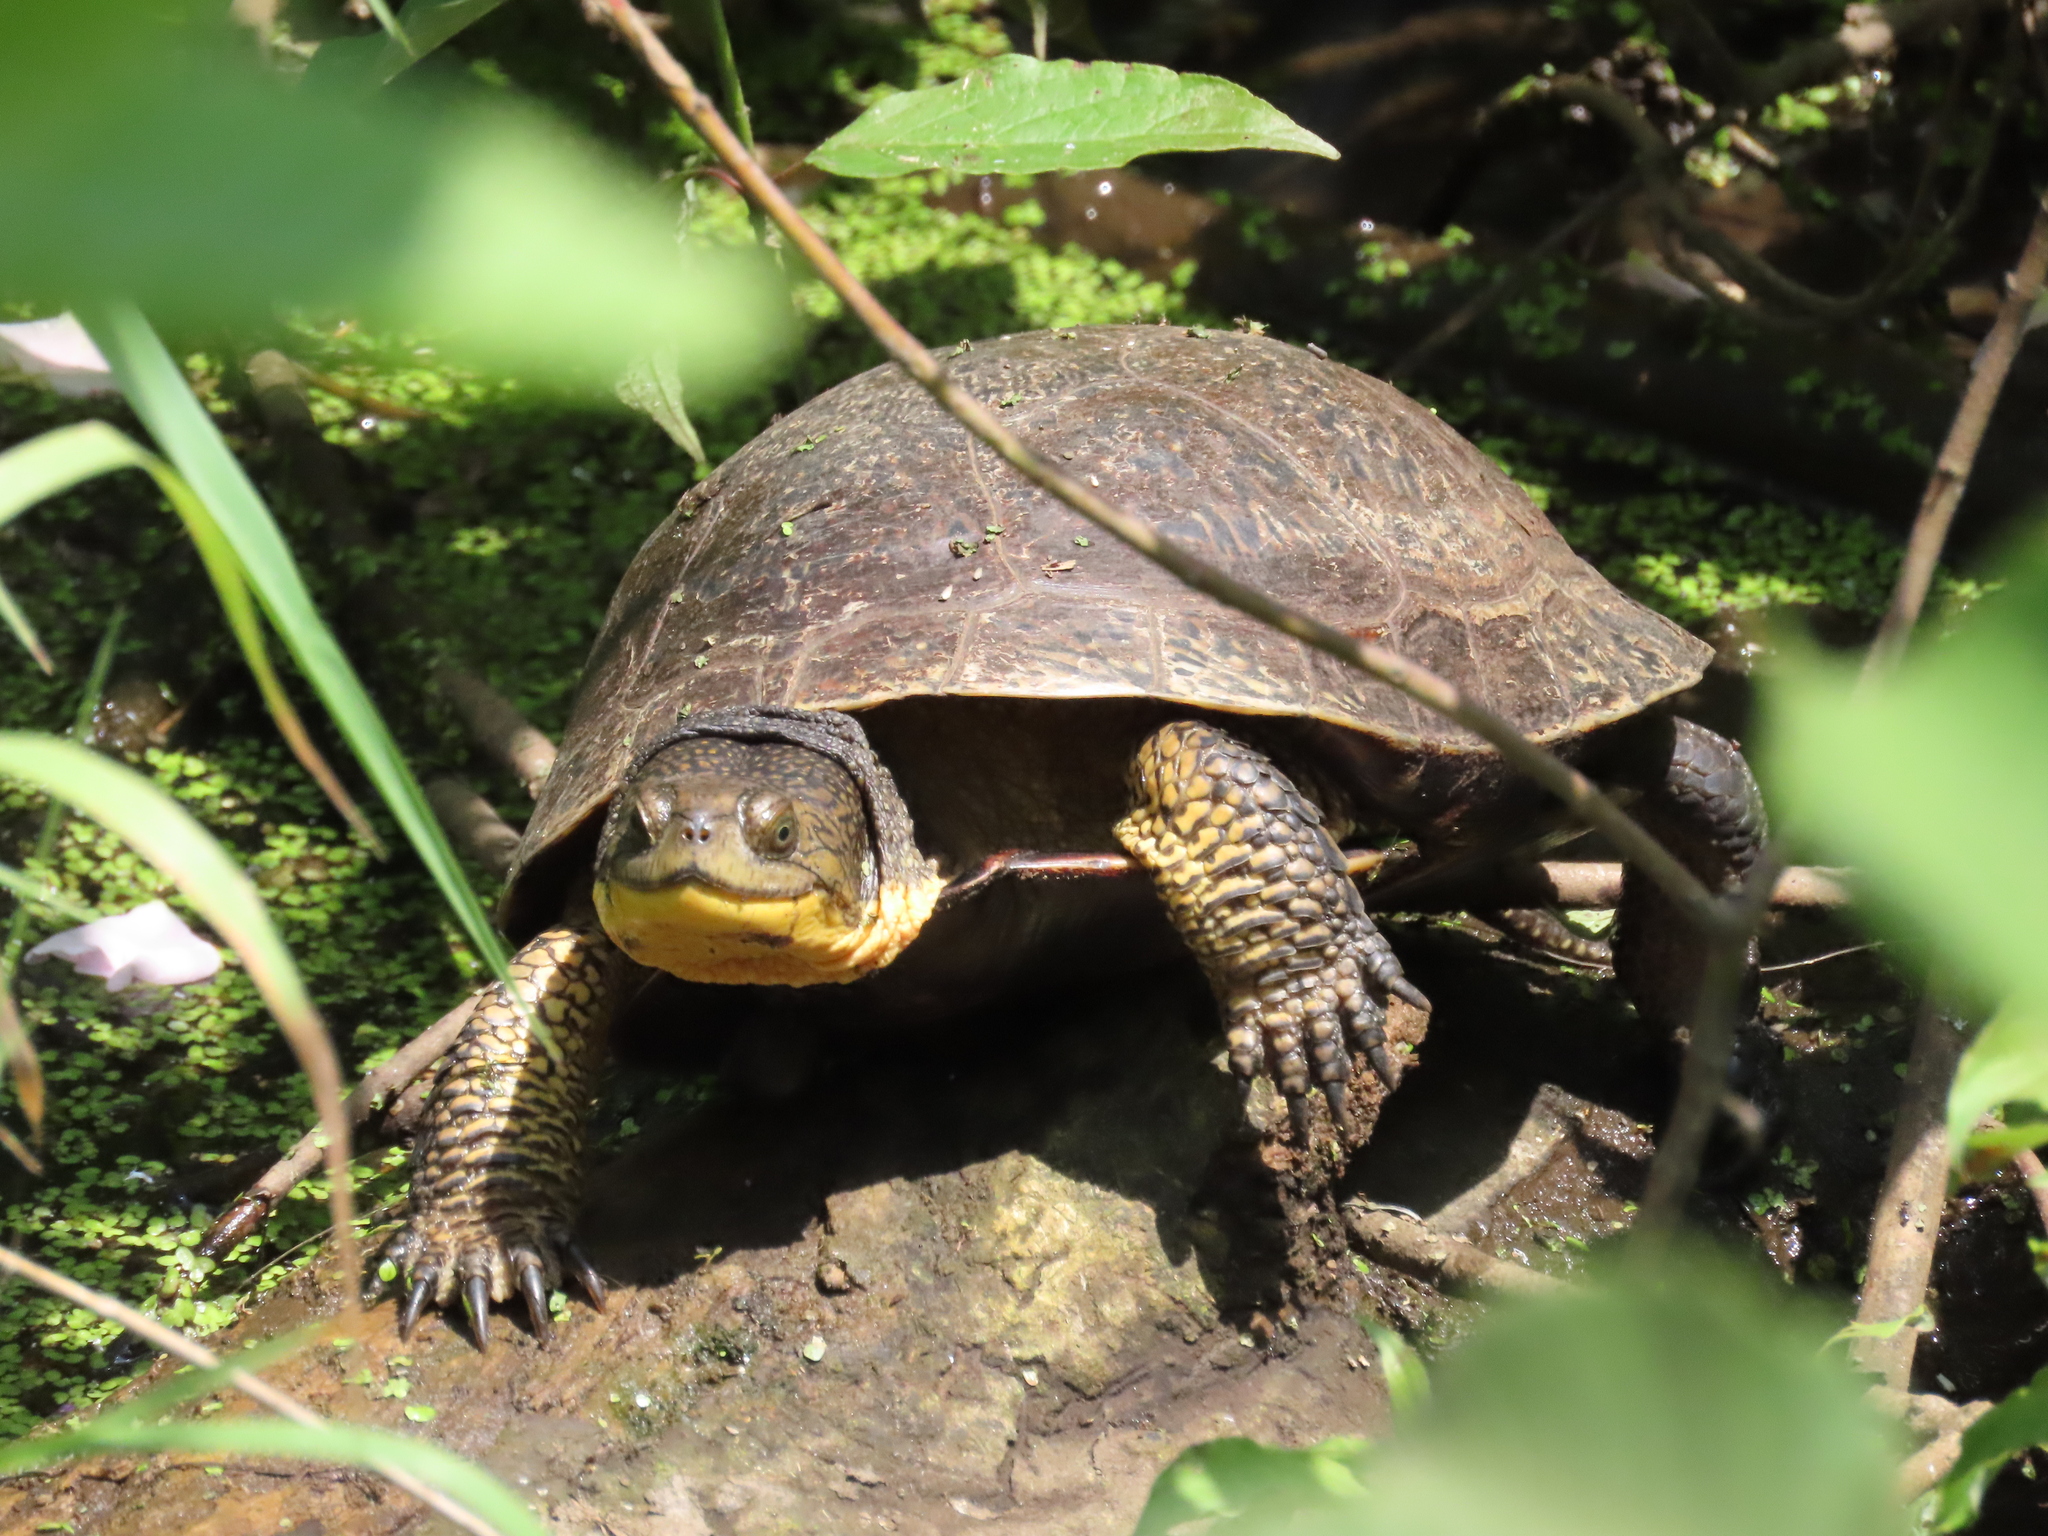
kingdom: Animalia
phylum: Chordata
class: Testudines
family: Emydidae
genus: Emys
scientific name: Emys blandingii
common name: Blanding's turtle
